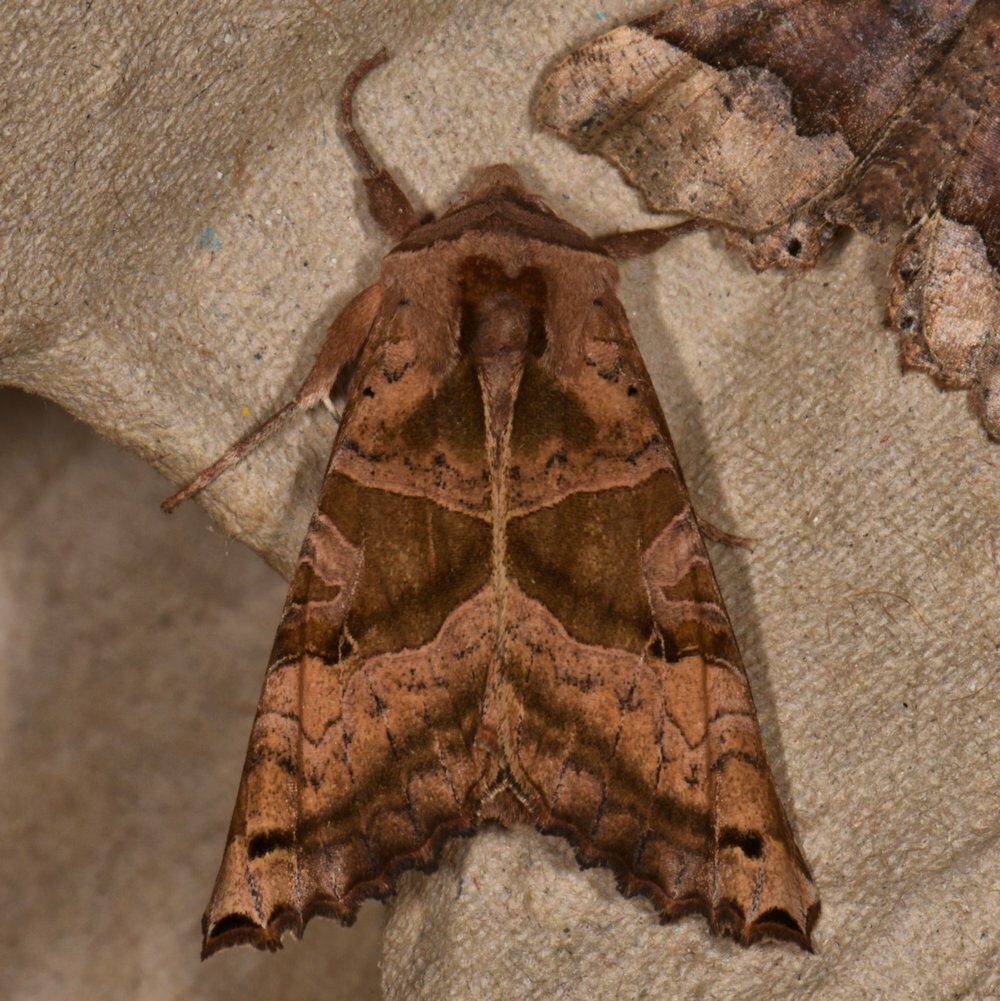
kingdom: Animalia
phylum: Arthropoda
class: Insecta
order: Lepidoptera
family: Noctuidae
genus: Phlogophora
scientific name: Phlogophora periculosa
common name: Brown angle shades
